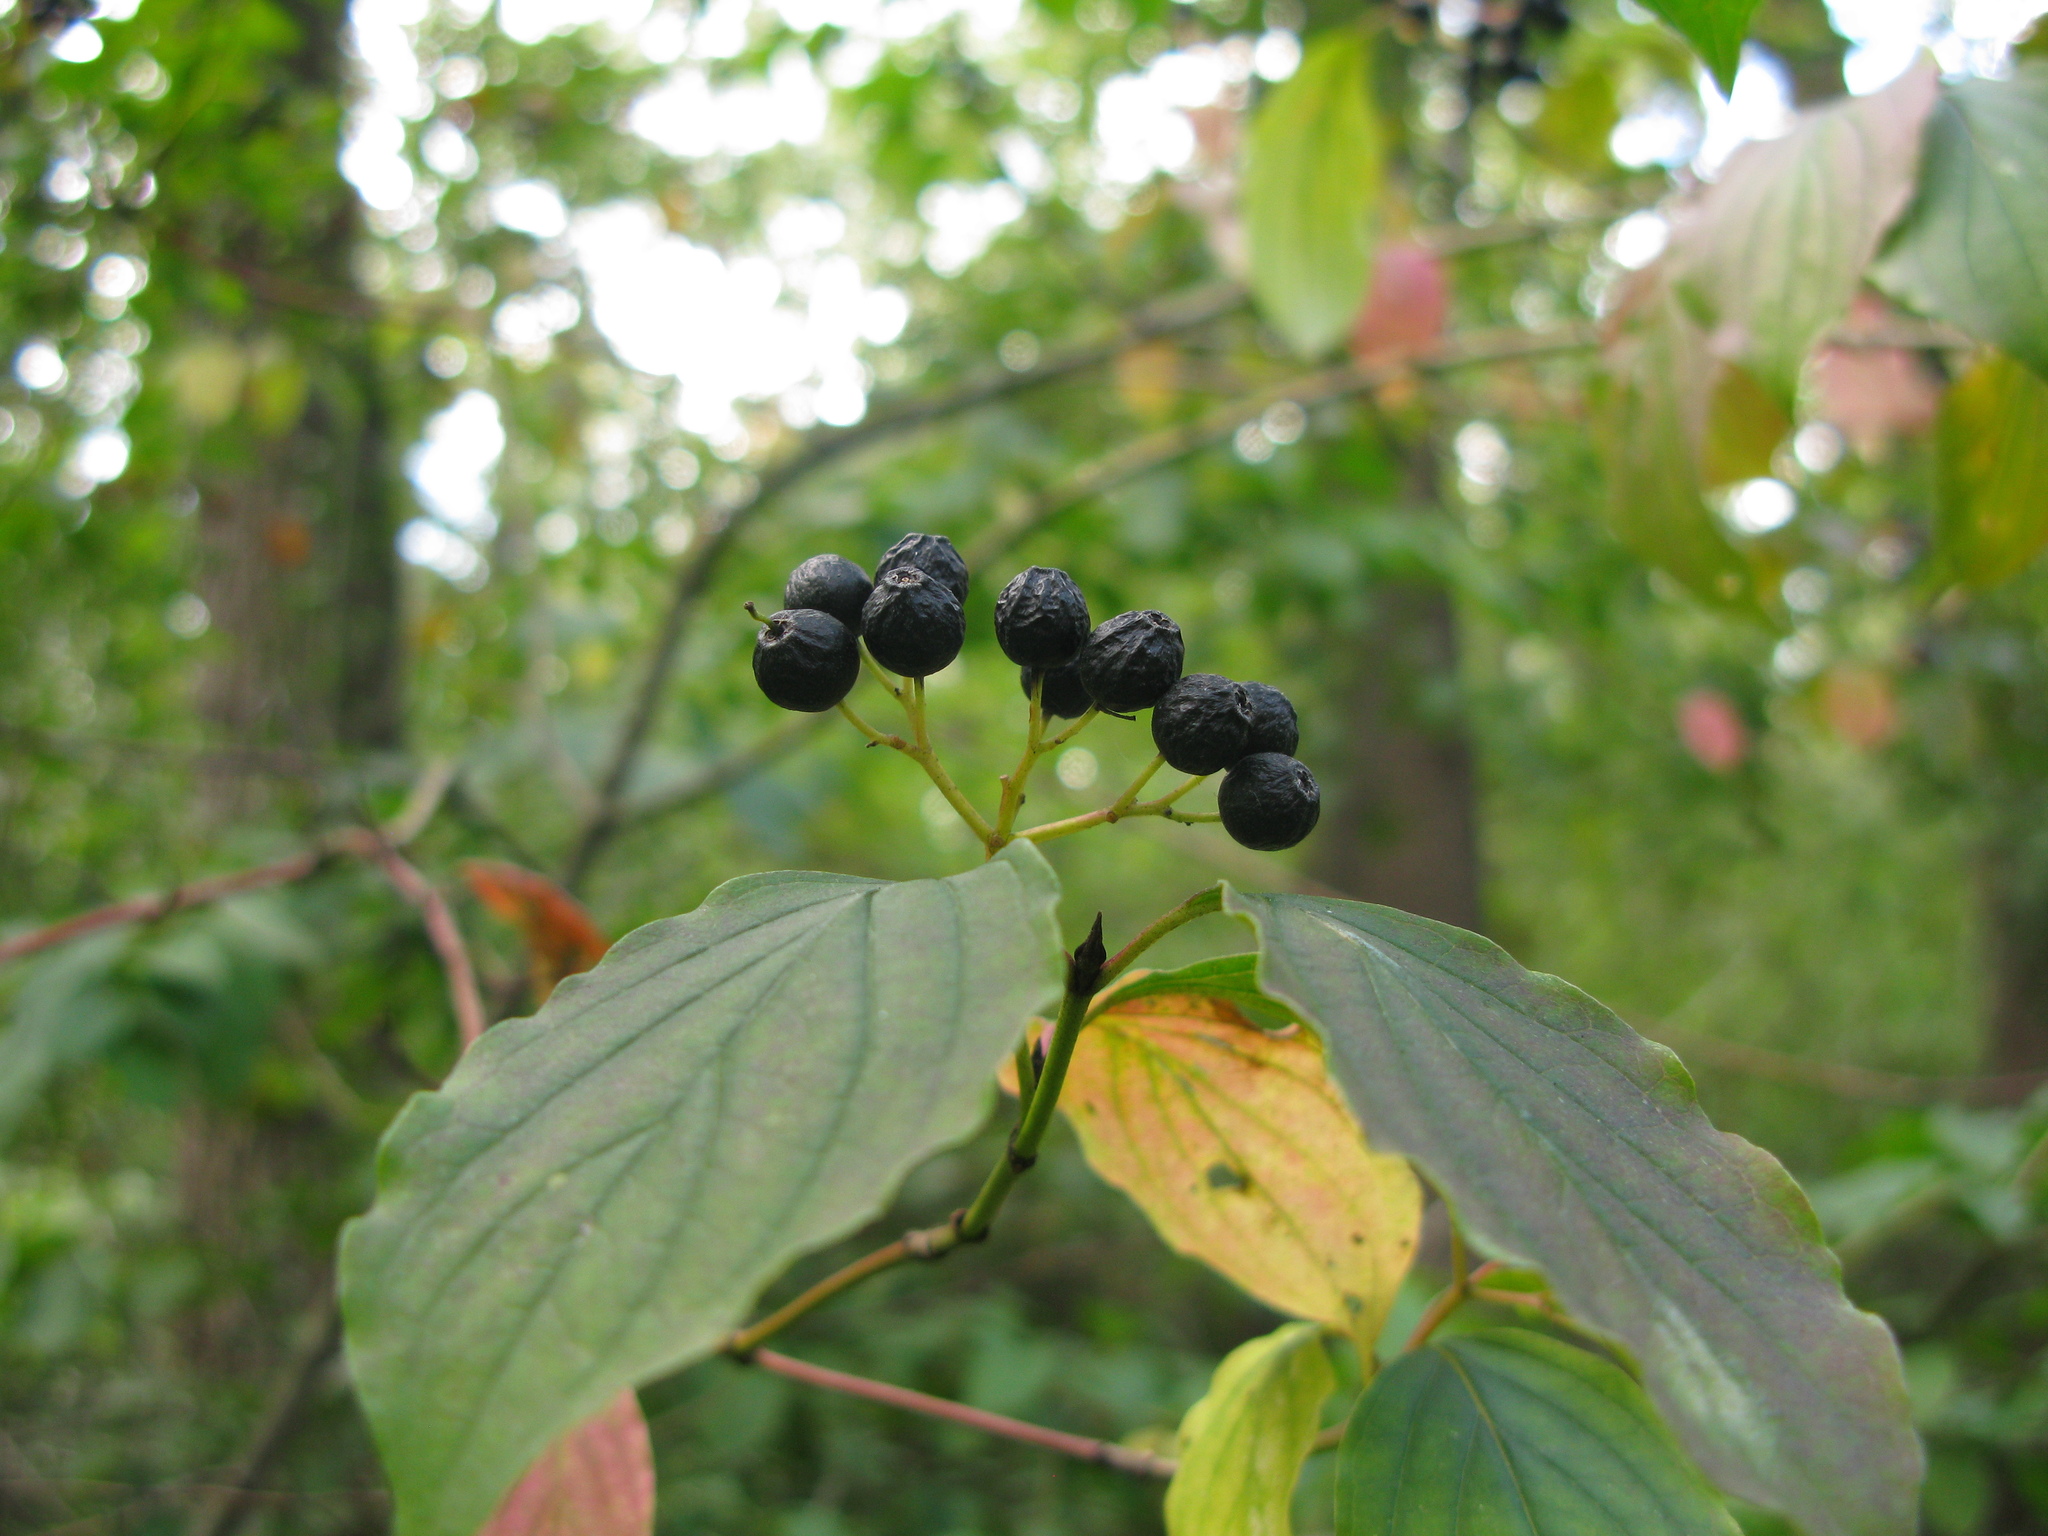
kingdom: Plantae
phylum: Tracheophyta
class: Magnoliopsida
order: Cornales
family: Cornaceae
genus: Cornus
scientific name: Cornus sanguinea
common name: Dogwood
